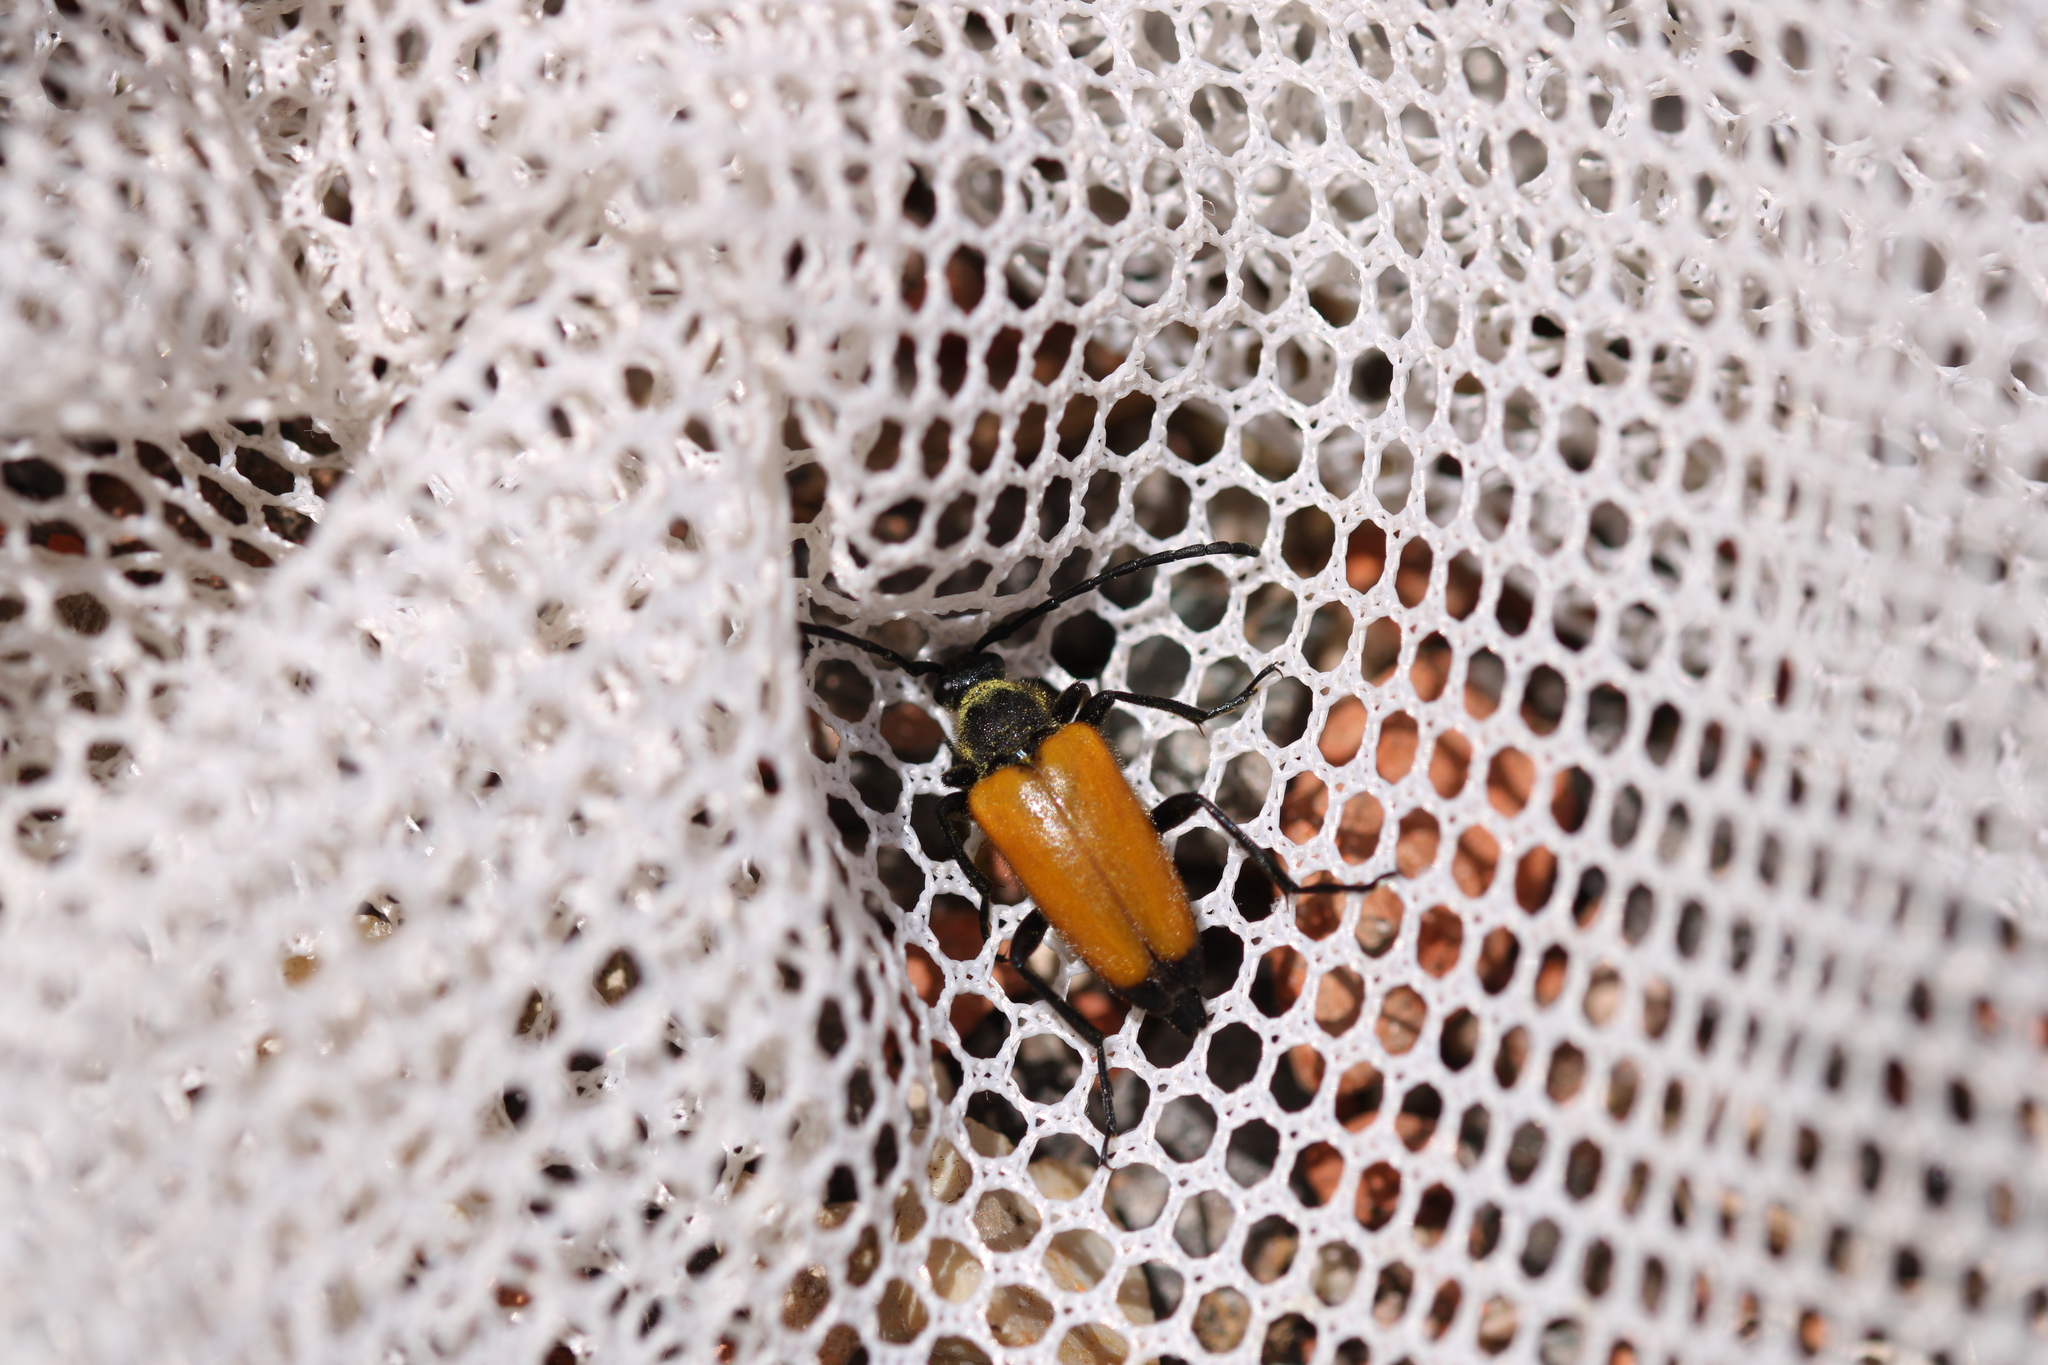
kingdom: Animalia
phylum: Arthropoda
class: Insecta
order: Coleoptera
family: Cerambycidae
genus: Paracorymbia
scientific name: Paracorymbia fulva
